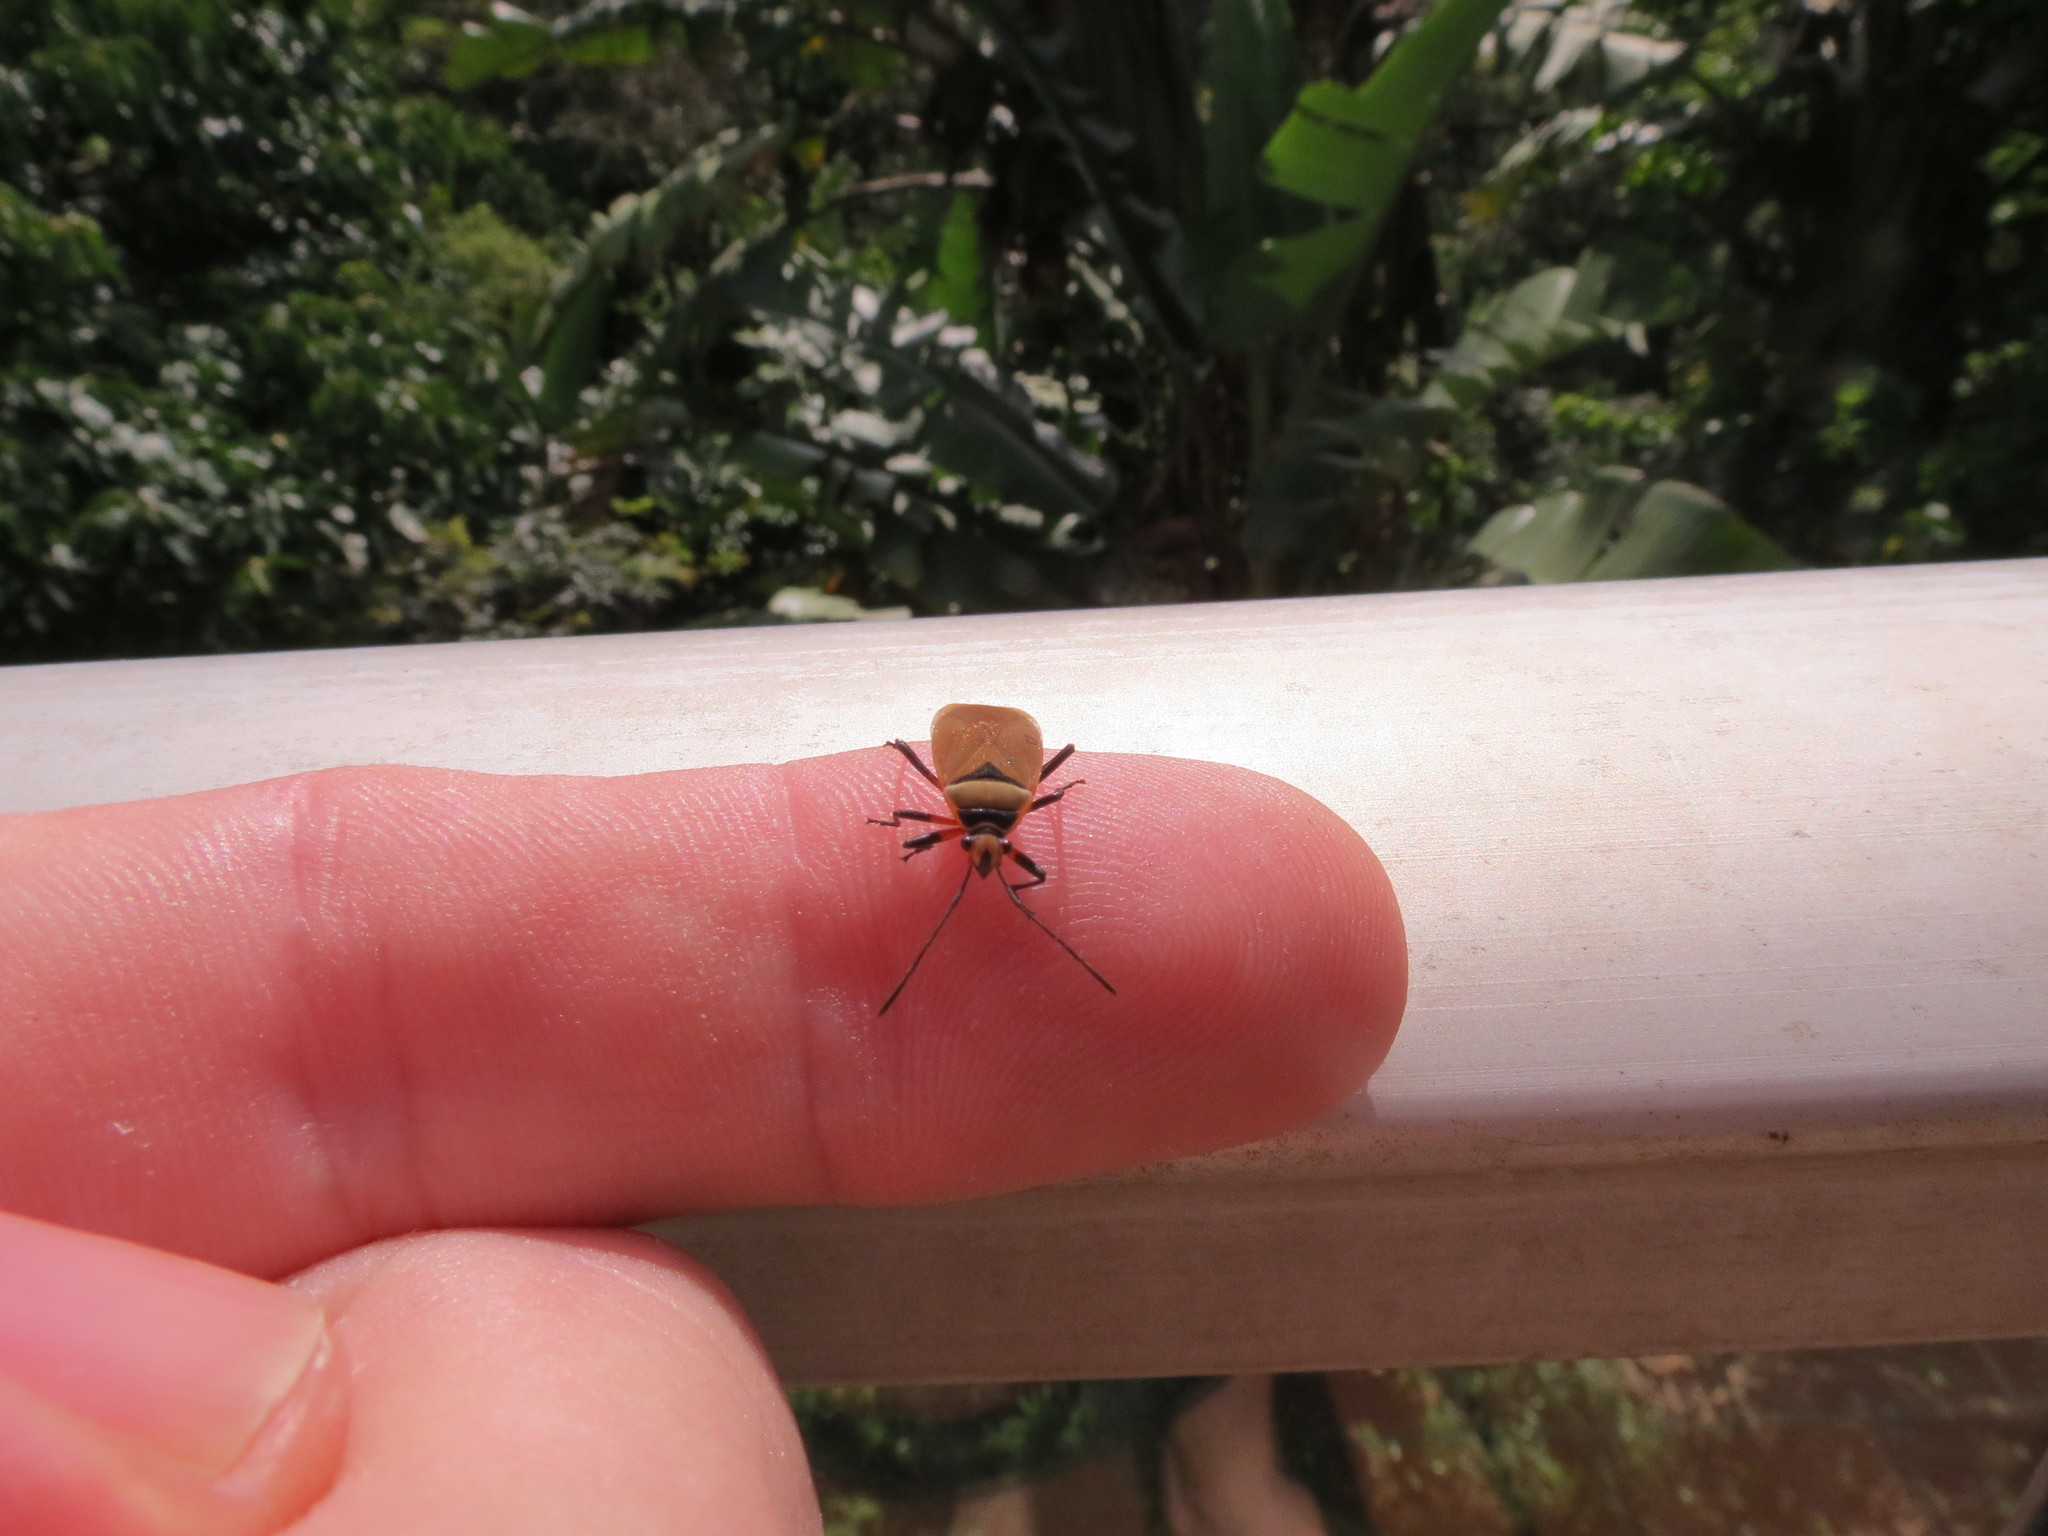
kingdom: Animalia
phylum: Arthropoda
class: Insecta
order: Hemiptera
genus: Cenaeus
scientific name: Cenaeus
